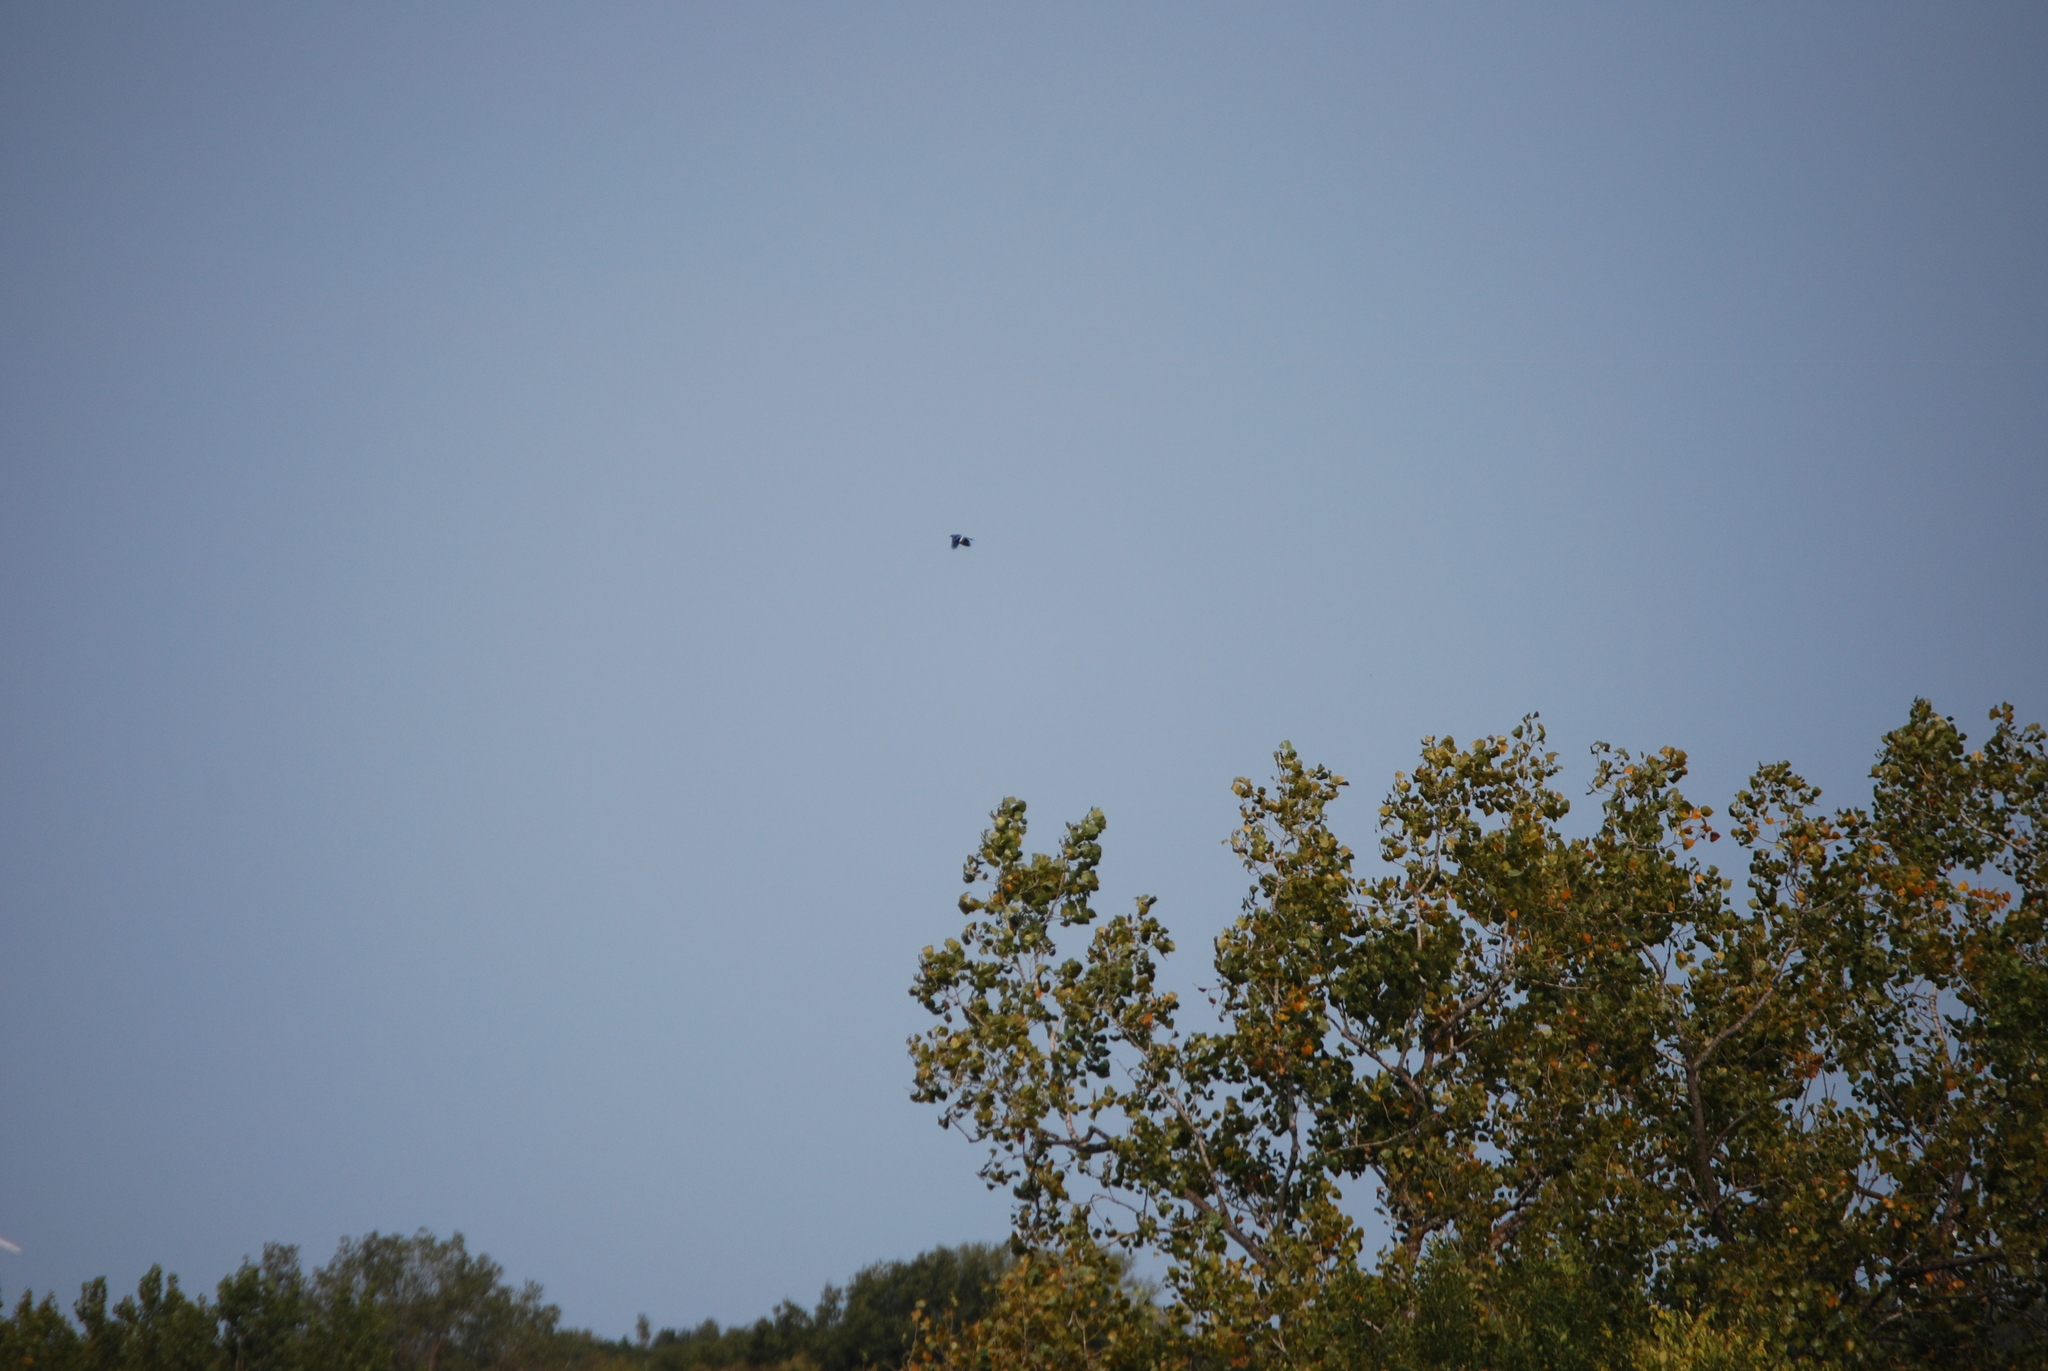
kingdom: Animalia
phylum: Chordata
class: Aves
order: Passeriformes
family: Corvidae
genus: Cyanocitta
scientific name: Cyanocitta cristata
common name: Blue jay
